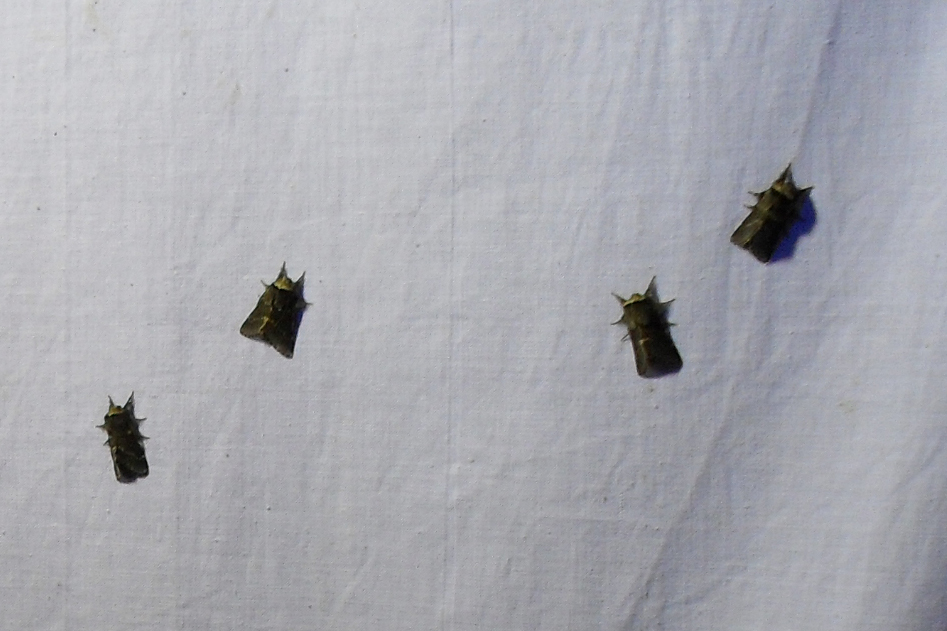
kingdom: Animalia
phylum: Arthropoda
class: Insecta
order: Lepidoptera
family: Lasiocampidae
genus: Poecilocampa
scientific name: Poecilocampa populi
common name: December moth
